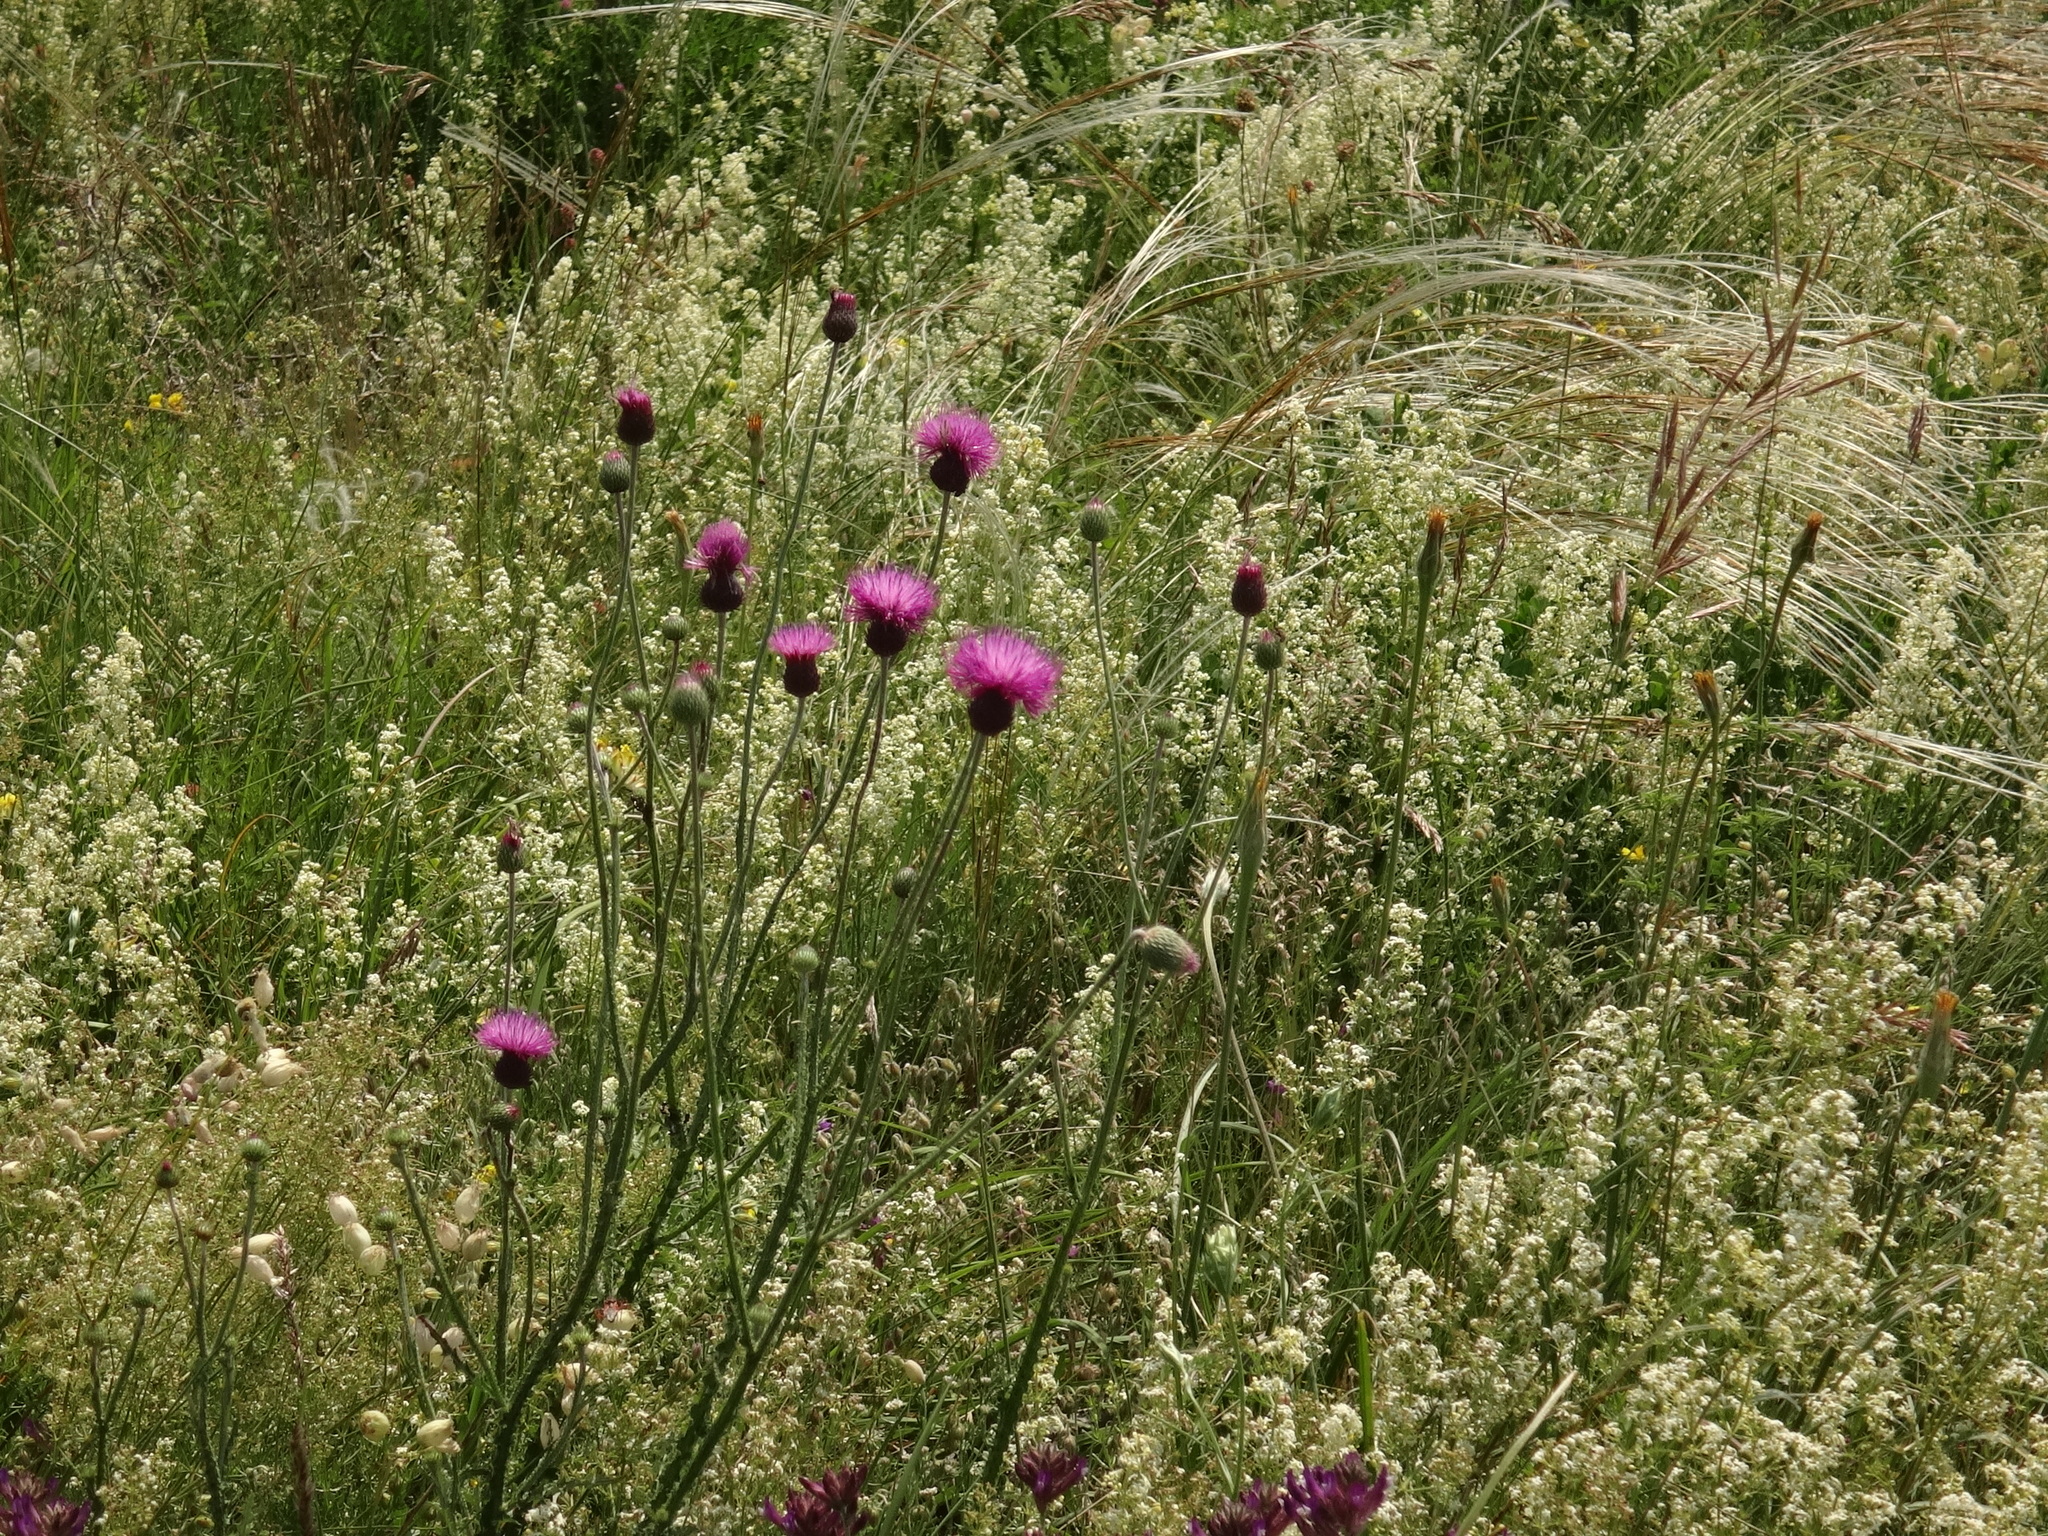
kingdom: Plantae
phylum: Tracheophyta
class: Magnoliopsida
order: Asterales
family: Asteraceae
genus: Carduus
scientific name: Carduus collinus
